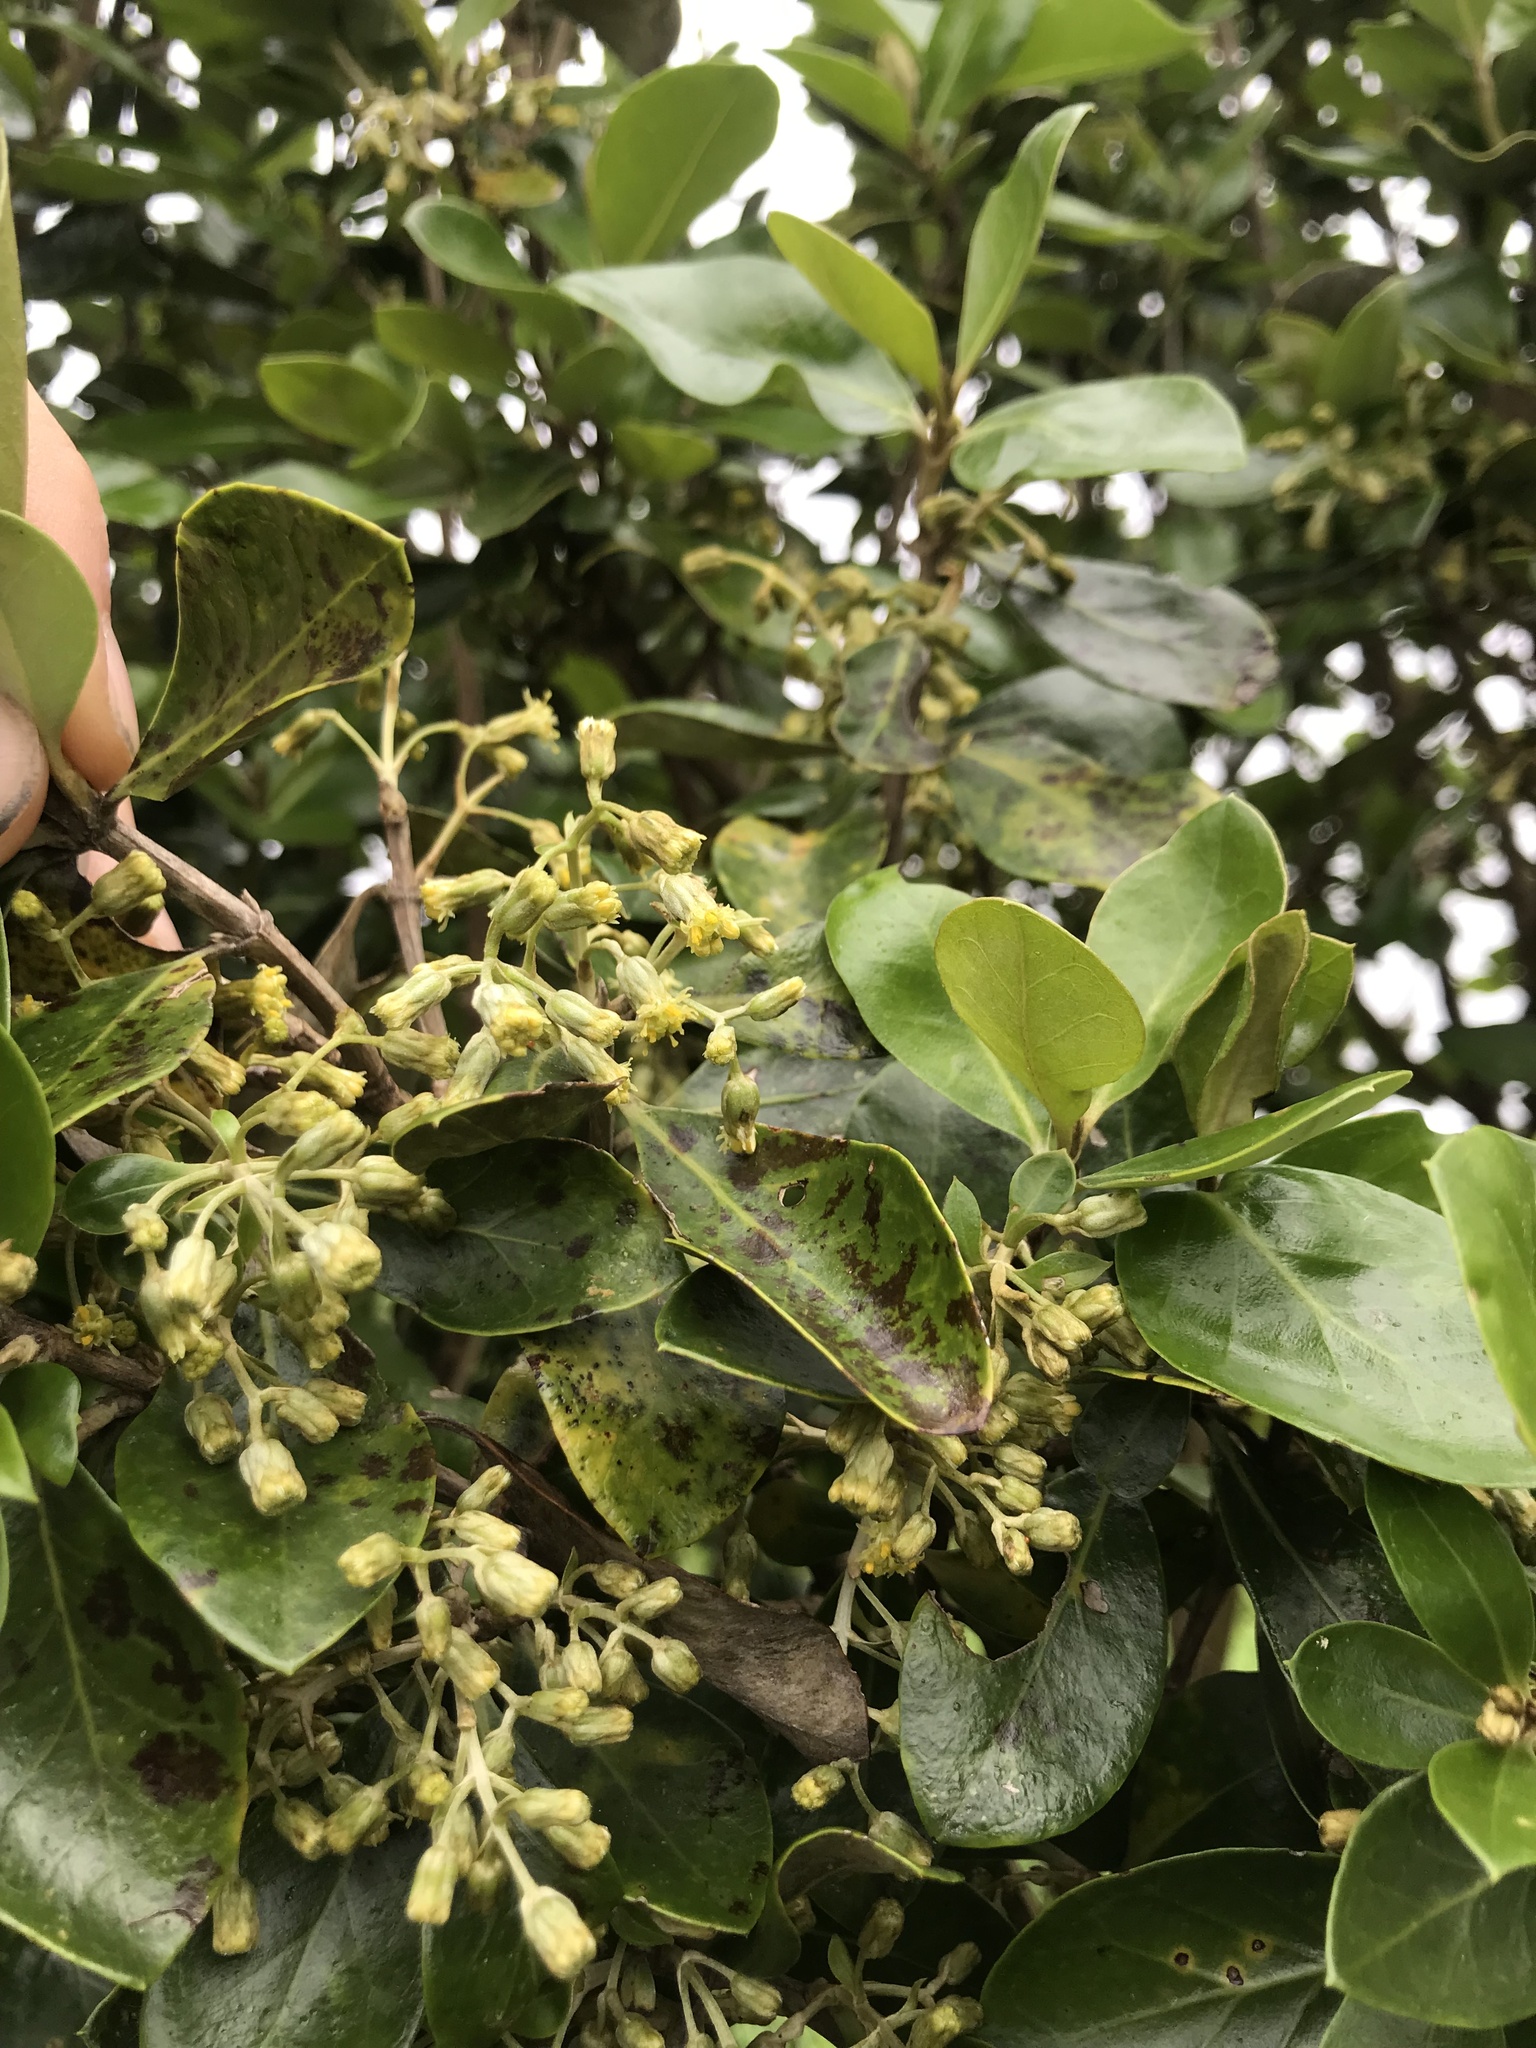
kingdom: Plantae
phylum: Tracheophyta
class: Magnoliopsida
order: Asterales
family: Asteraceae
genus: Olearia
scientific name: Olearia telmatica
